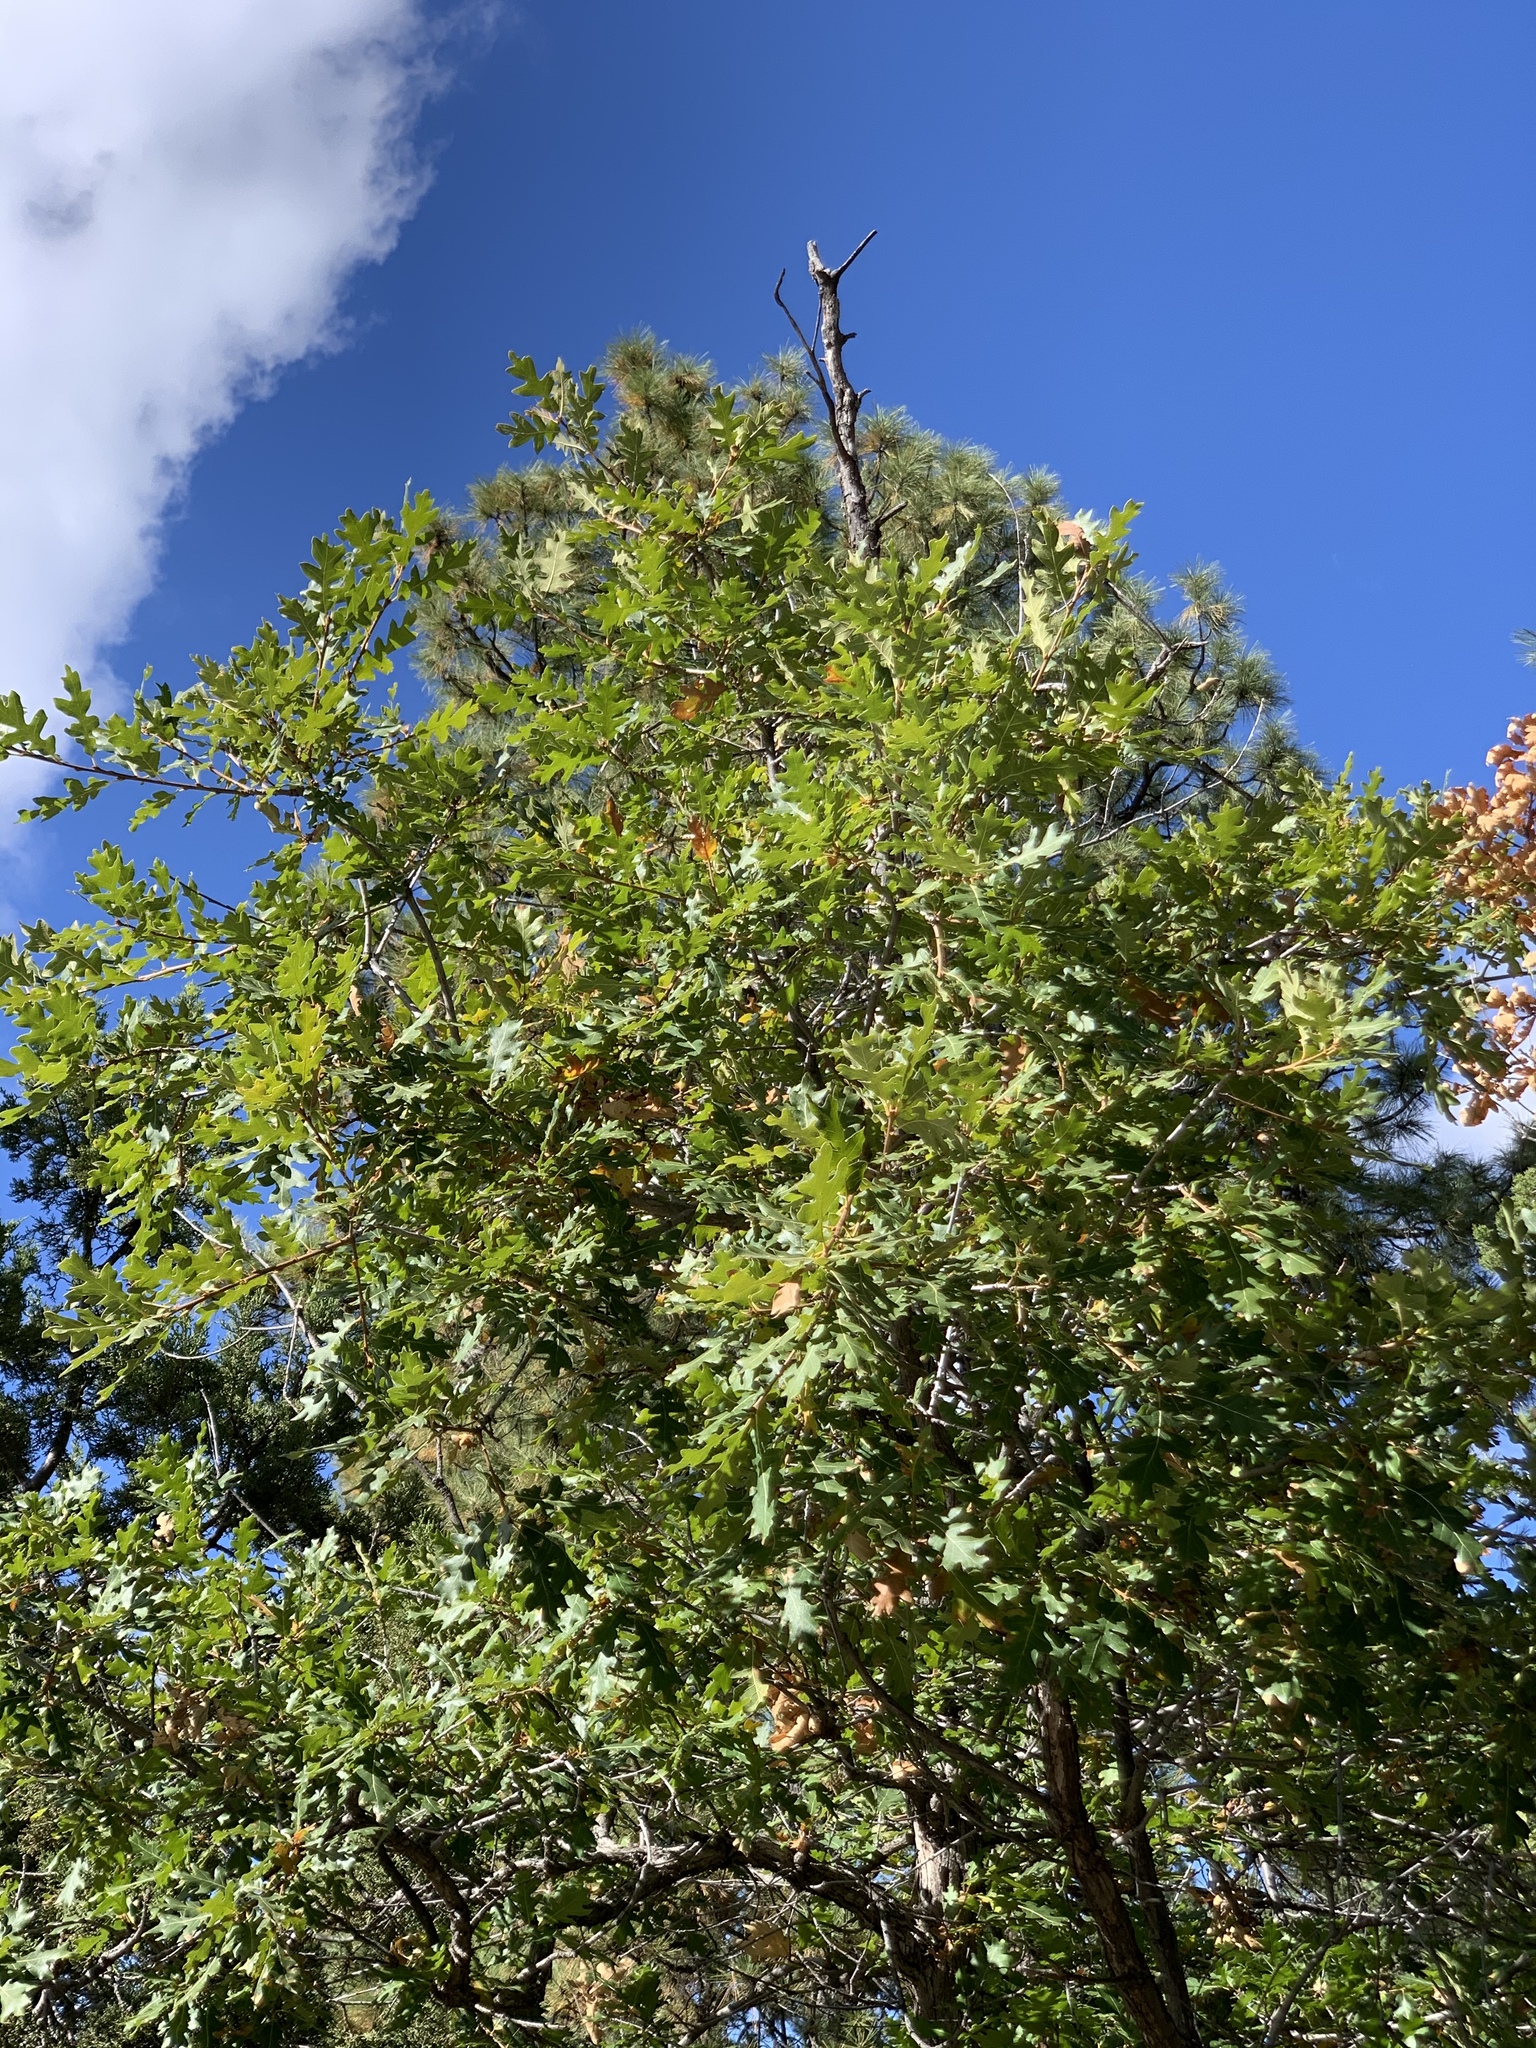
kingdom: Plantae
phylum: Tracheophyta
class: Magnoliopsida
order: Fagales
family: Fagaceae
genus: Quercus
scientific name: Quercus gambelii
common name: Gambel oak
